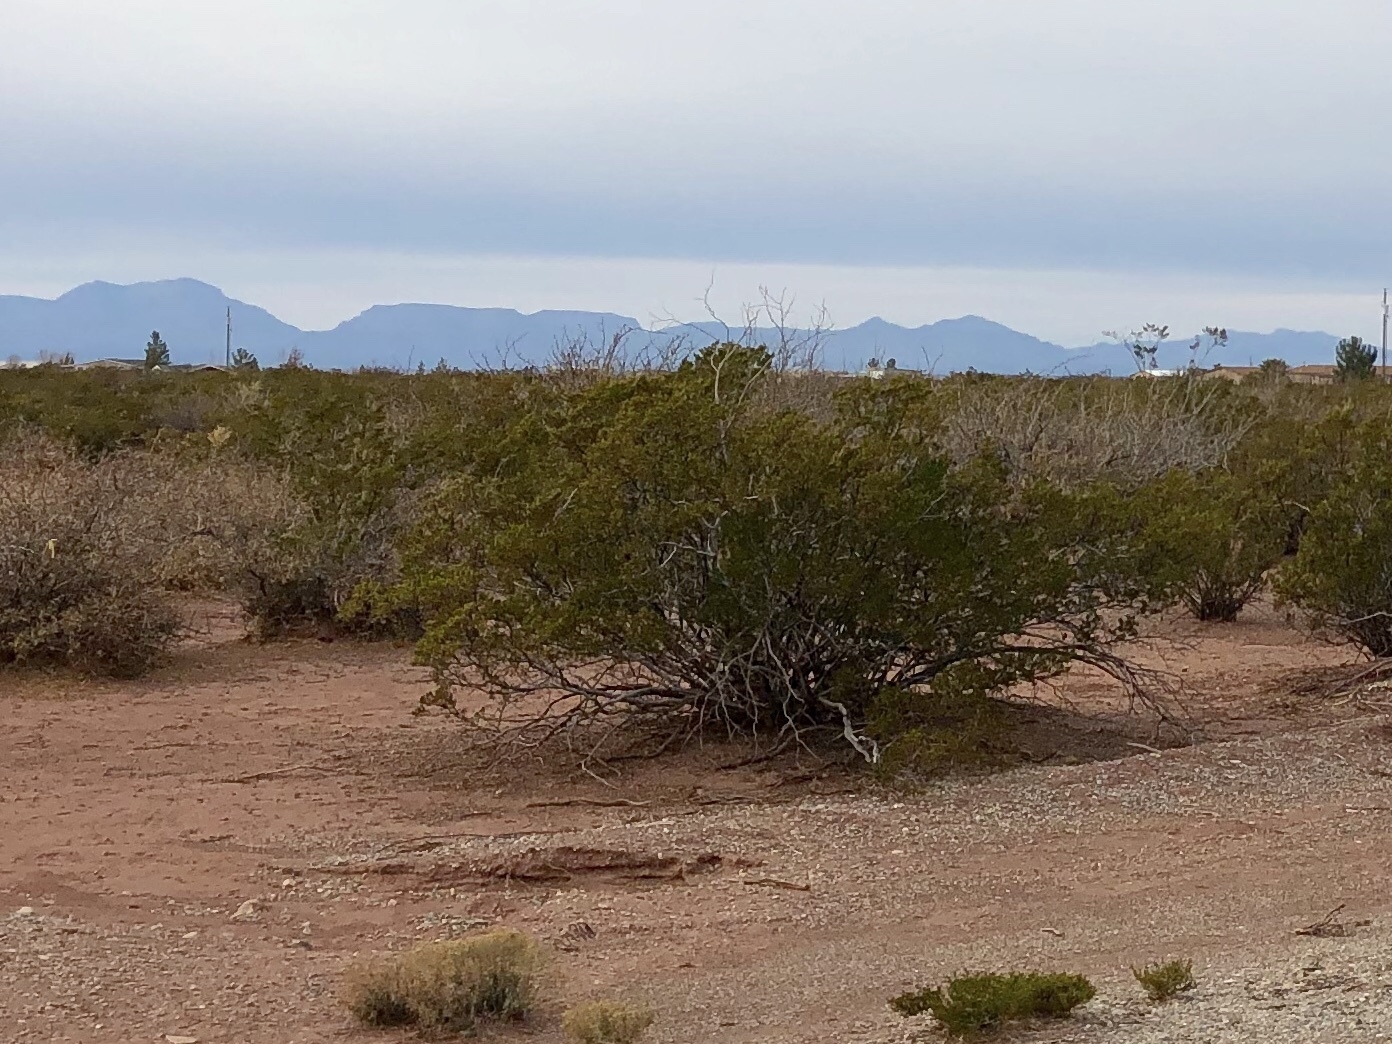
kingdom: Plantae
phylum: Tracheophyta
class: Magnoliopsida
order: Zygophyllales
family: Zygophyllaceae
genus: Larrea
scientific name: Larrea tridentata
